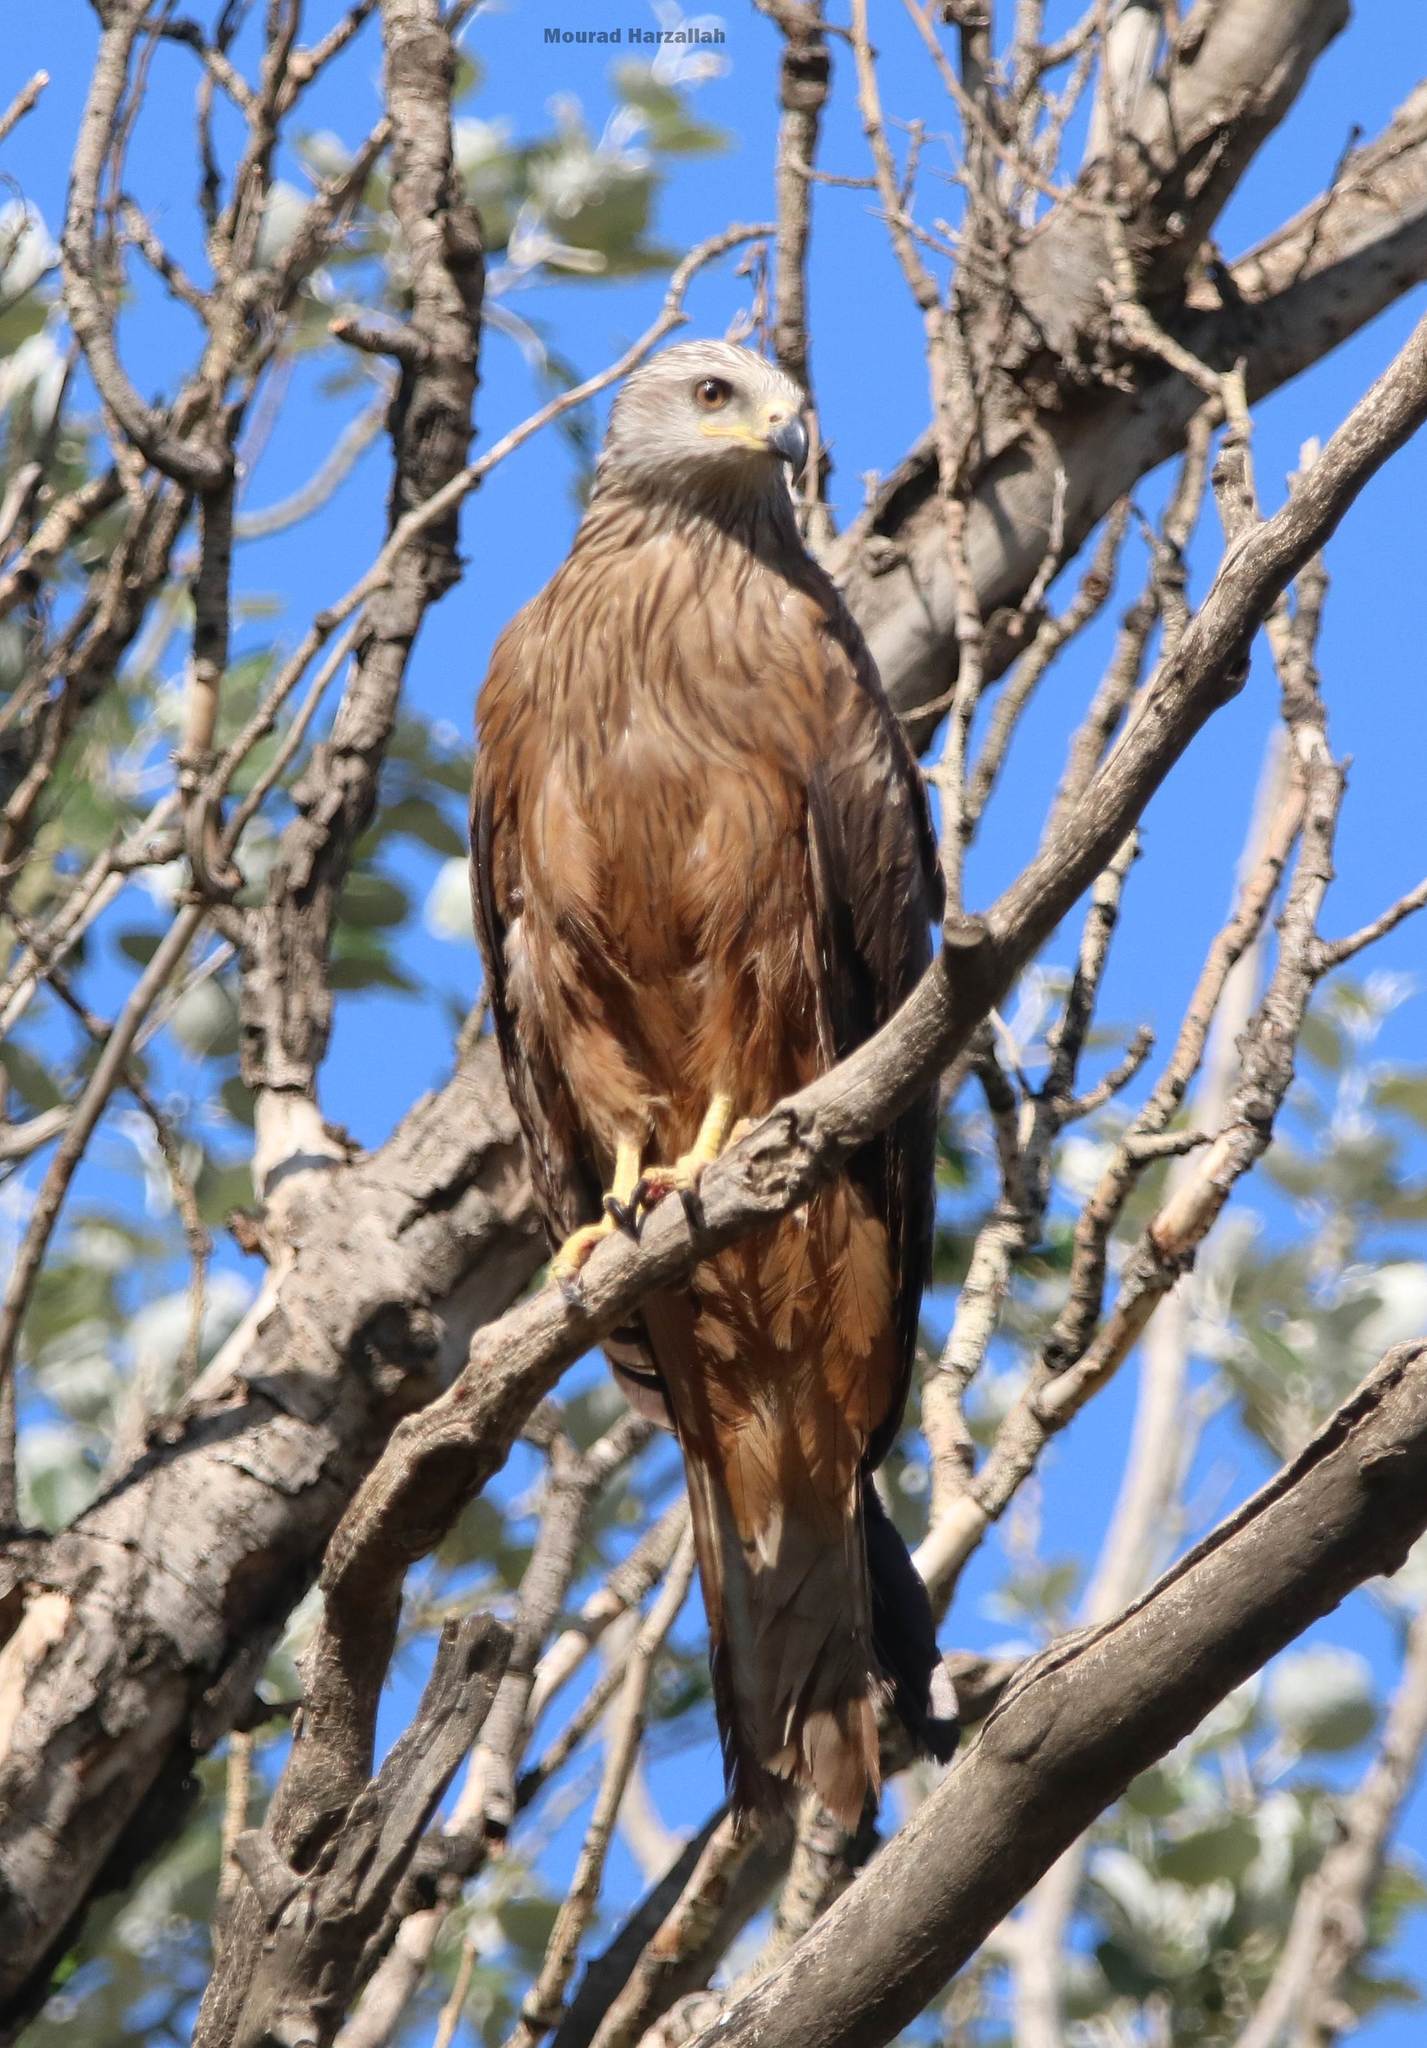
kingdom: Animalia
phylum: Chordata
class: Aves
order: Accipitriformes
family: Accipitridae
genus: Milvus
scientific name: Milvus migrans
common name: Black kite
